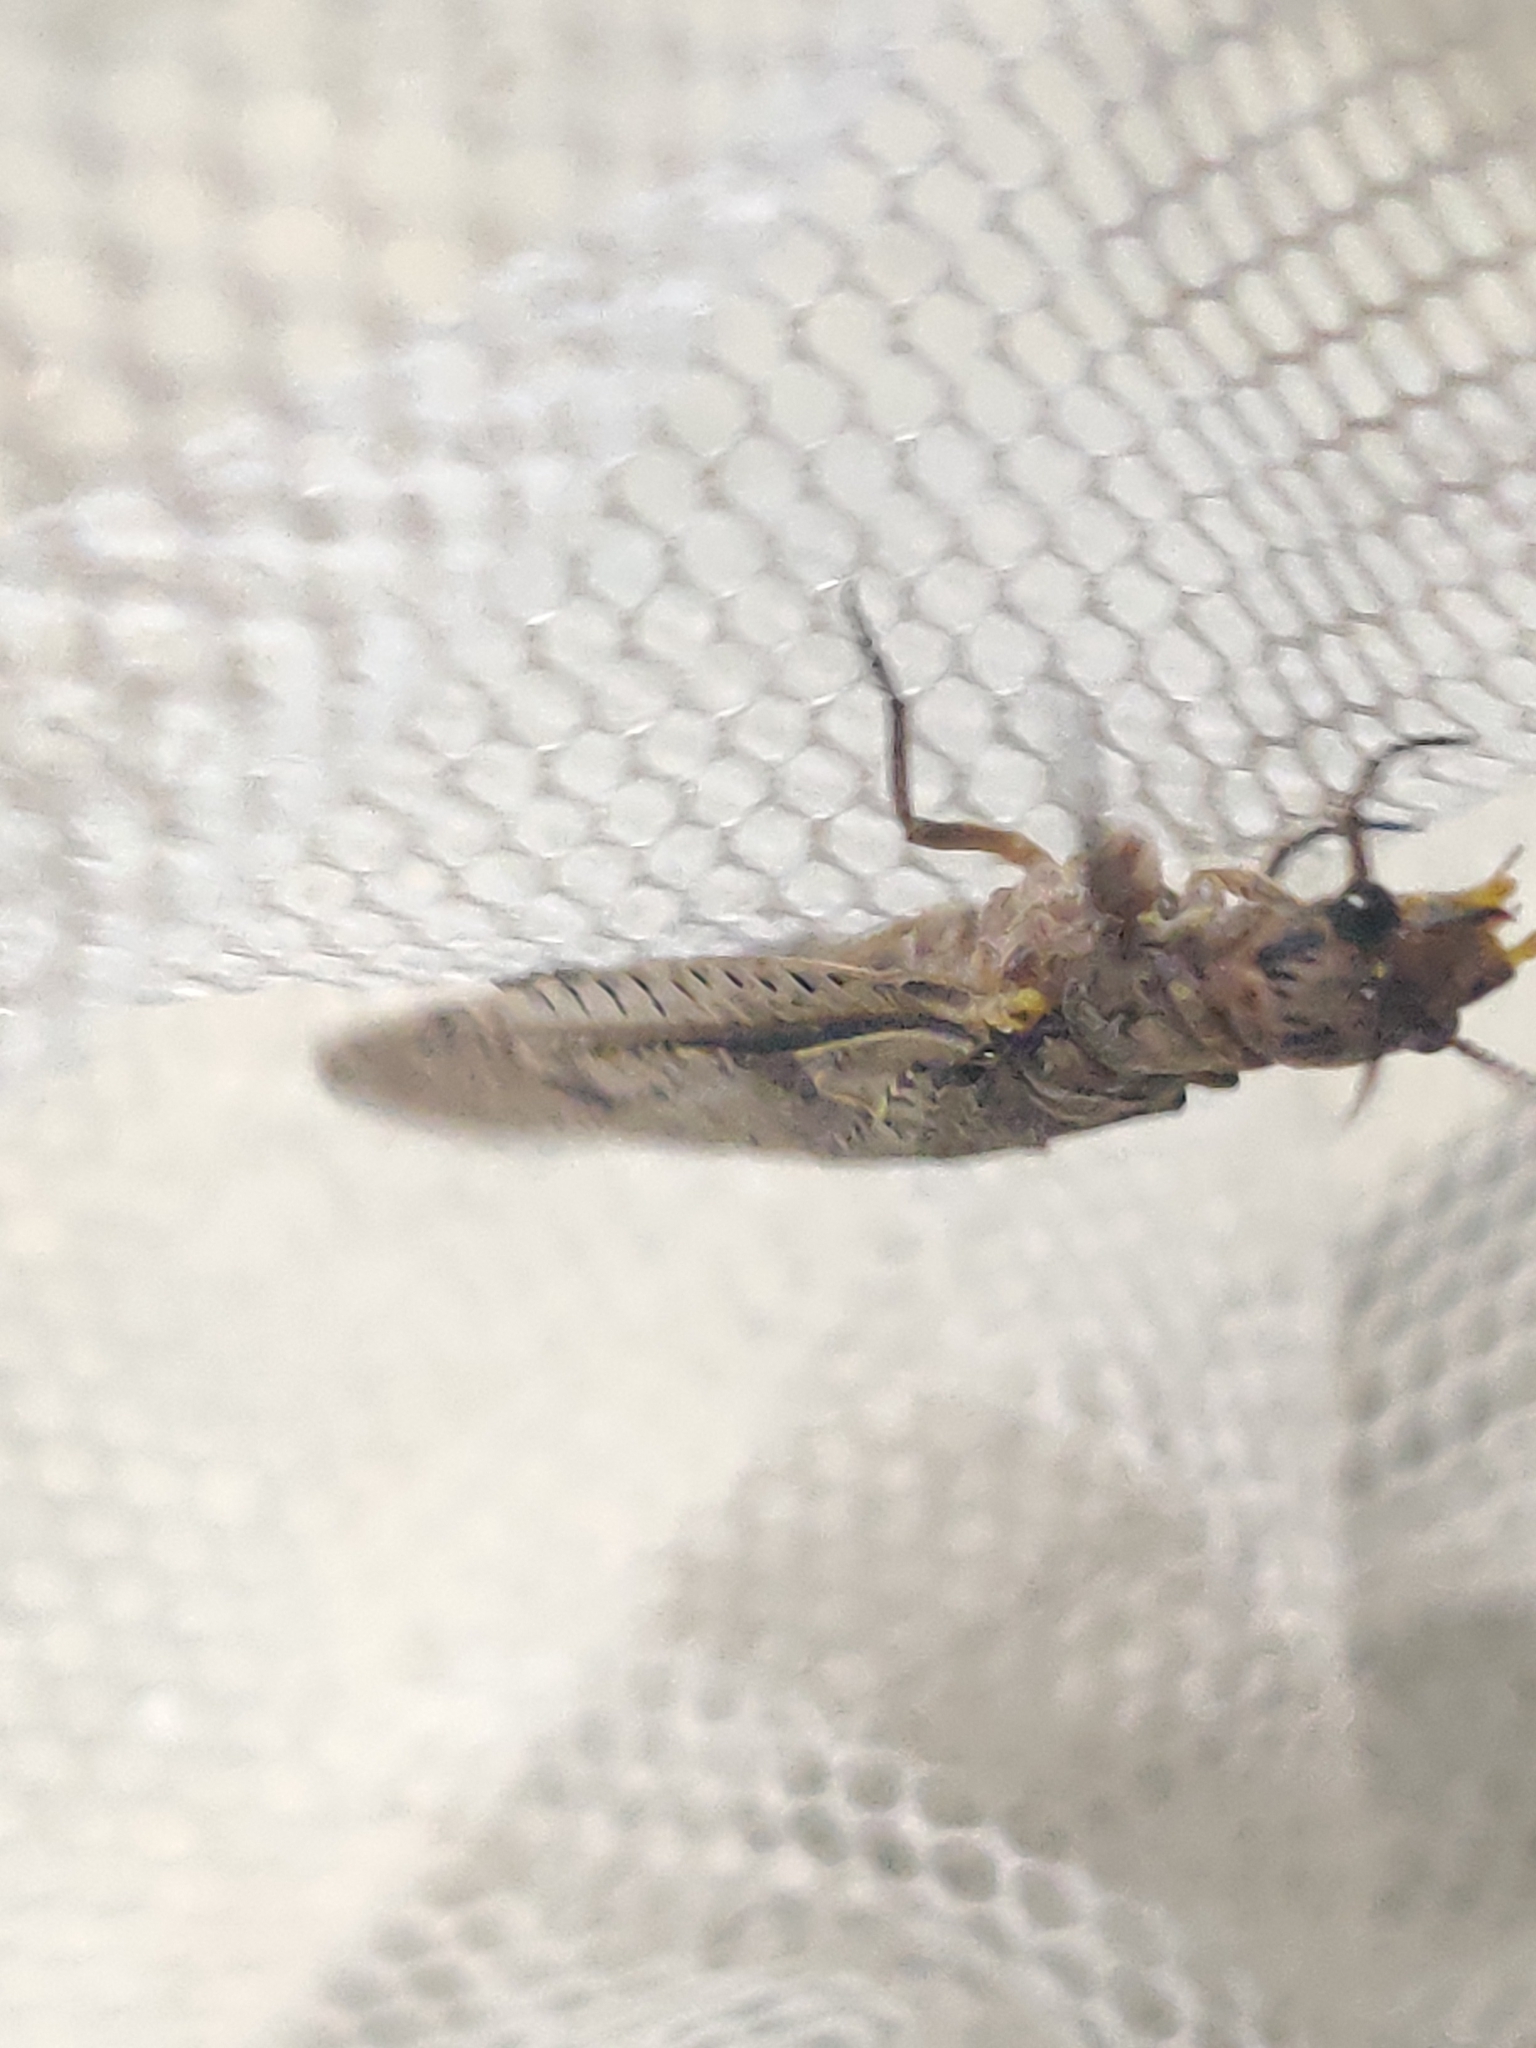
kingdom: Animalia
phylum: Arthropoda
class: Insecta
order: Megaloptera
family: Corydalidae
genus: Chauliodes
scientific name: Chauliodes rastricornis
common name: Spring fishfly
